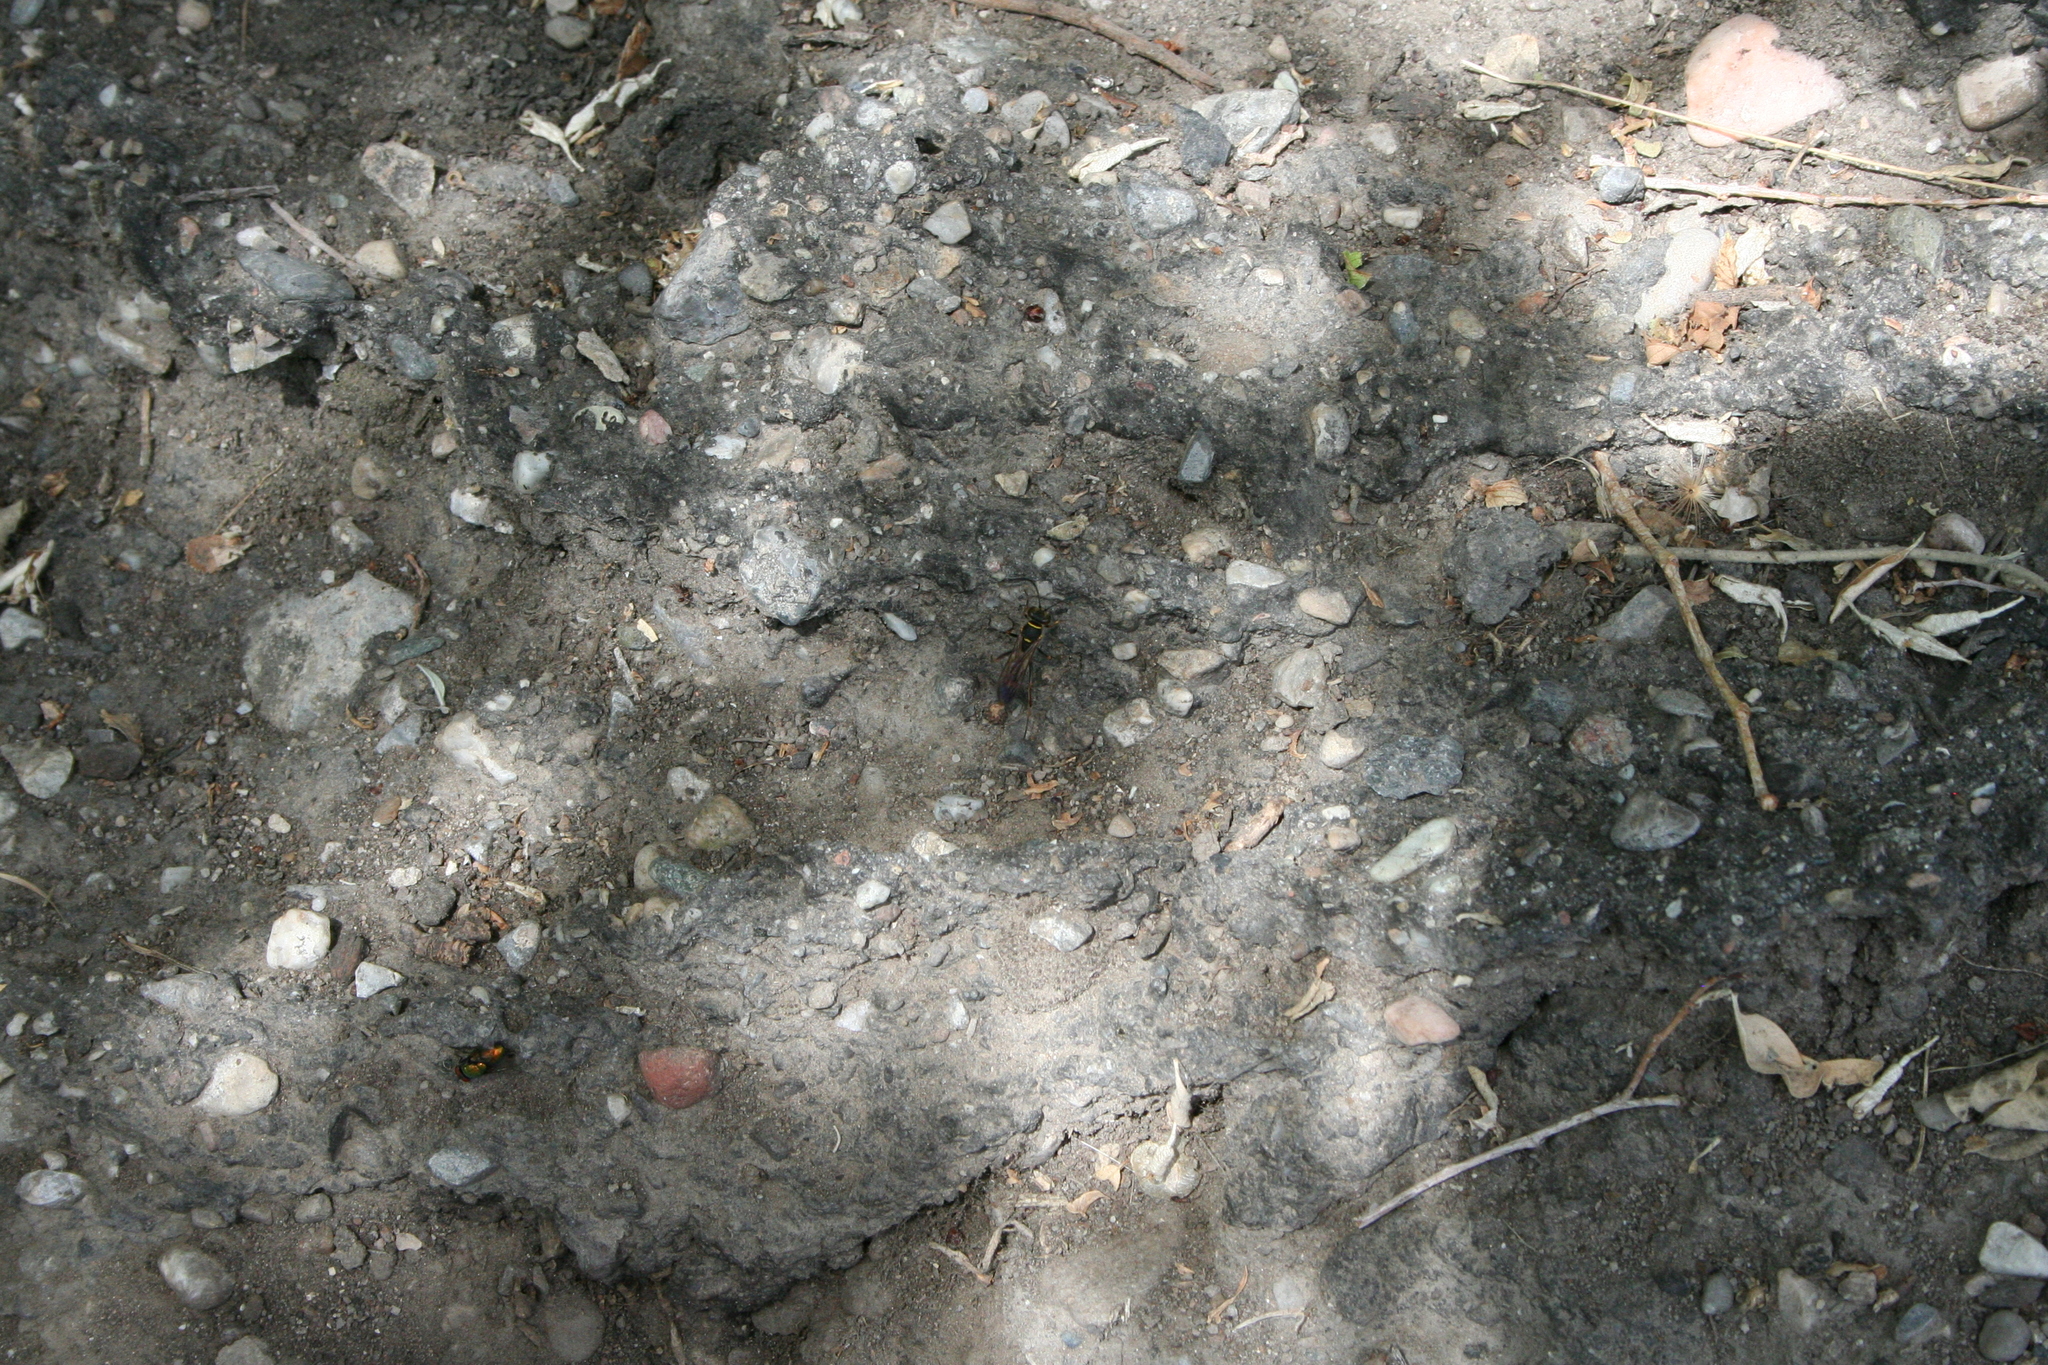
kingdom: Animalia
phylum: Arthropoda
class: Insecta
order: Hymenoptera
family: Sphecidae
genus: Sceliphron
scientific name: Sceliphron curvatum
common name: Pèlopèe
